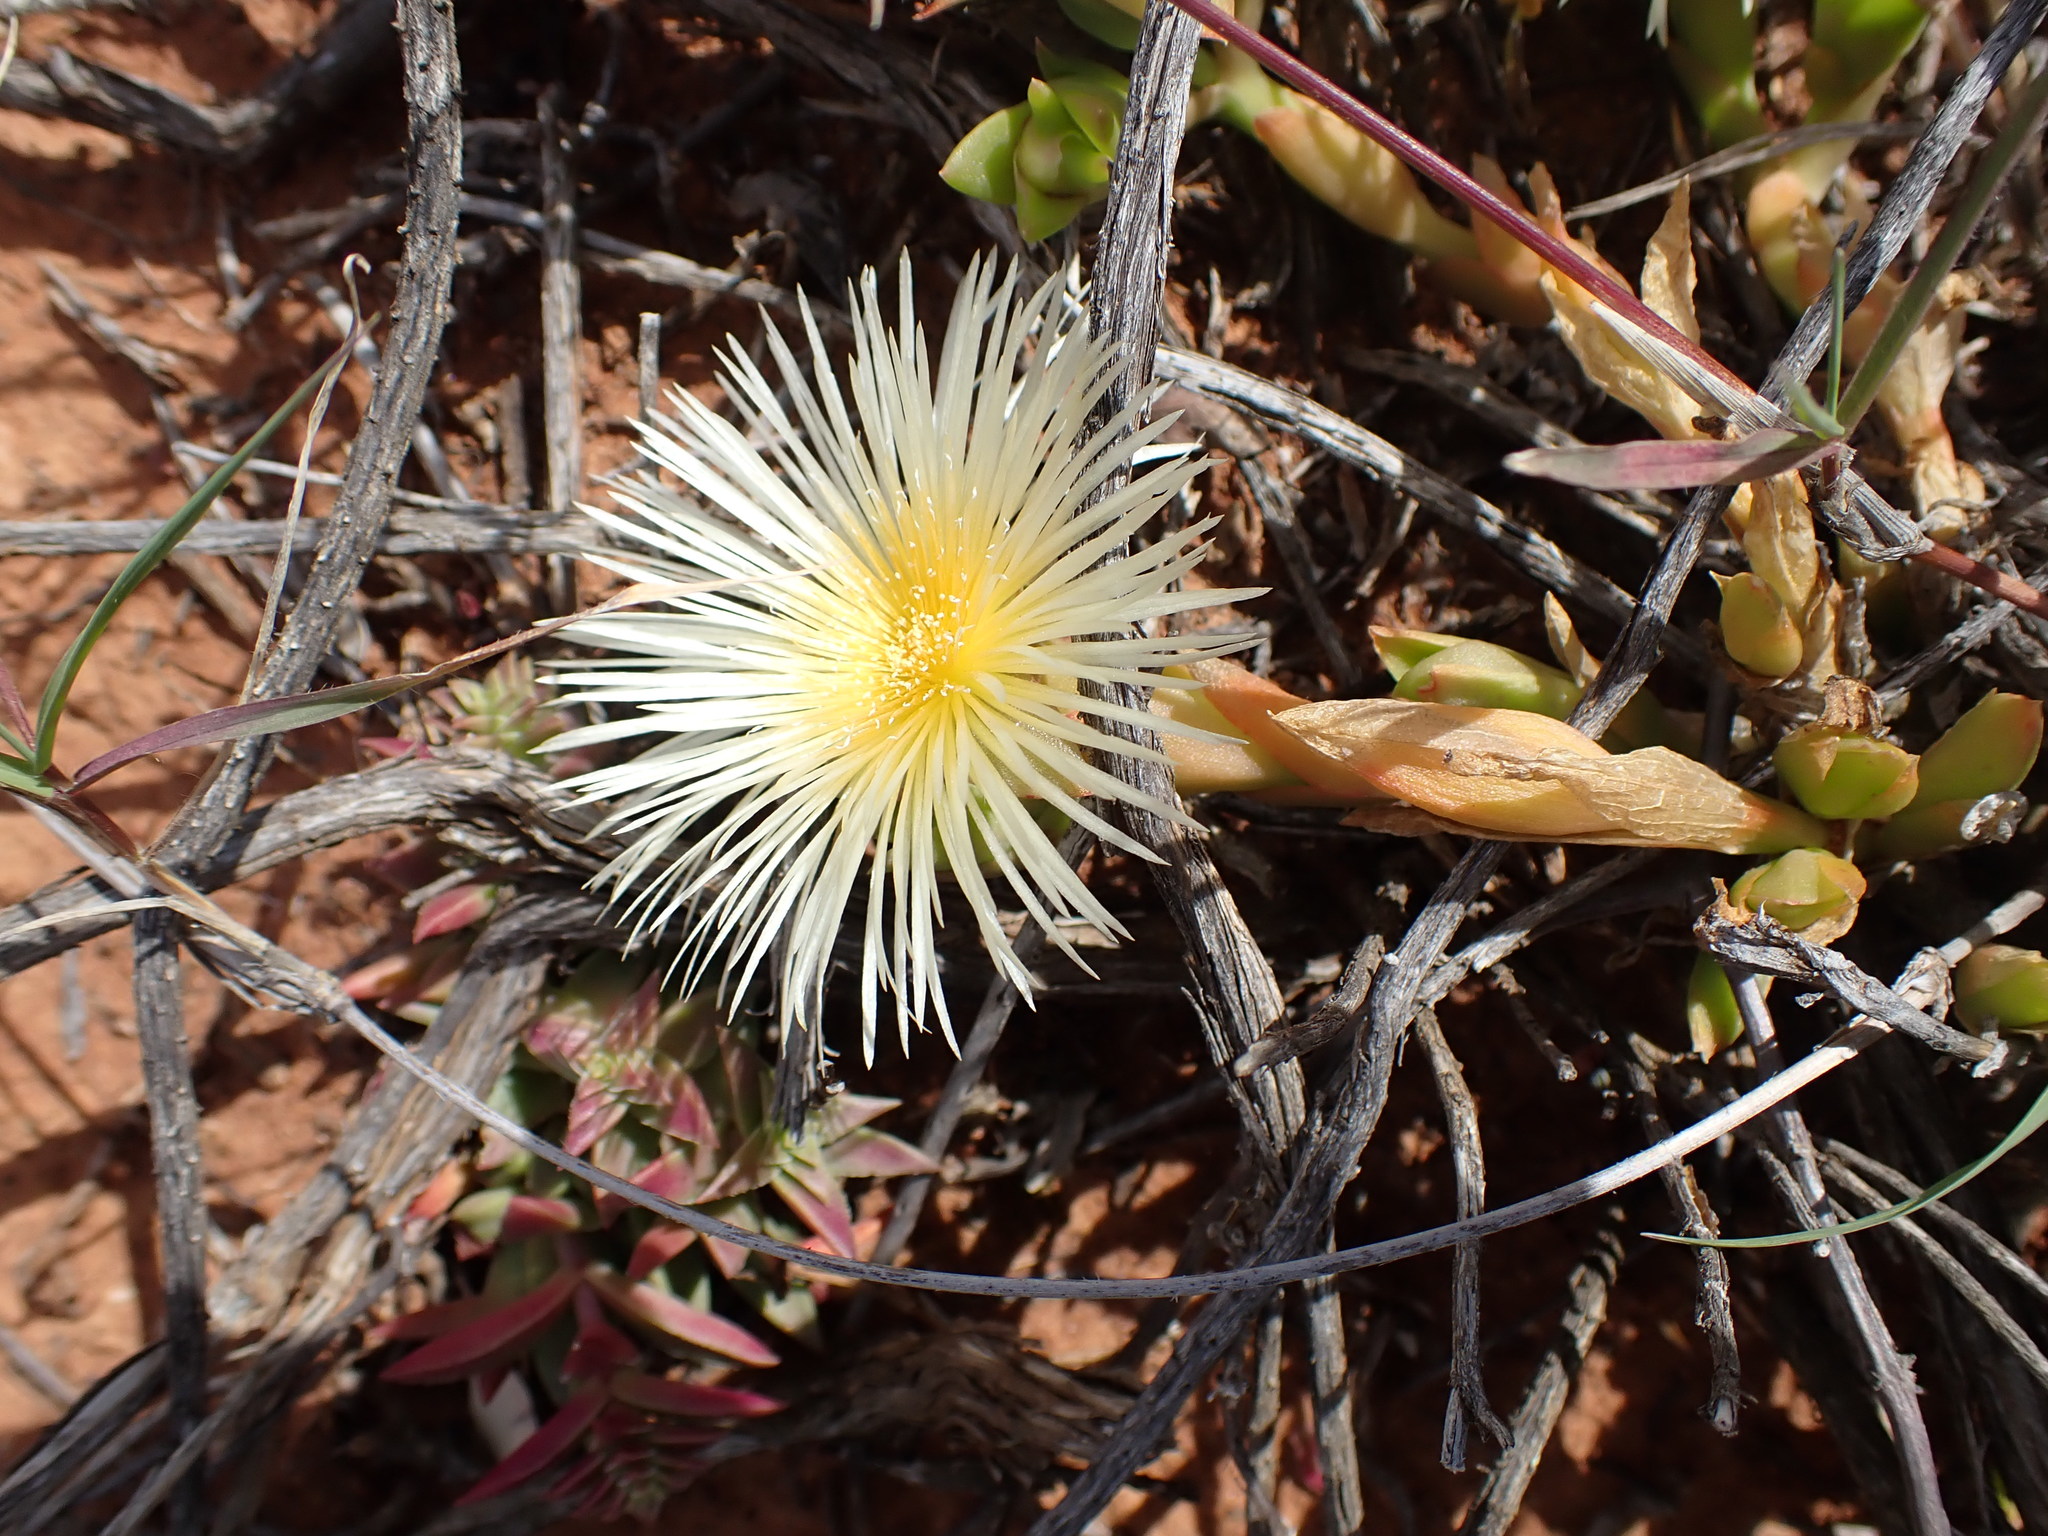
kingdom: Plantae
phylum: Tracheophyta
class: Magnoliopsida
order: Caryophyllales
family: Aizoaceae
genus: Mesembryanthemum
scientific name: Mesembryanthemum tortuosum
